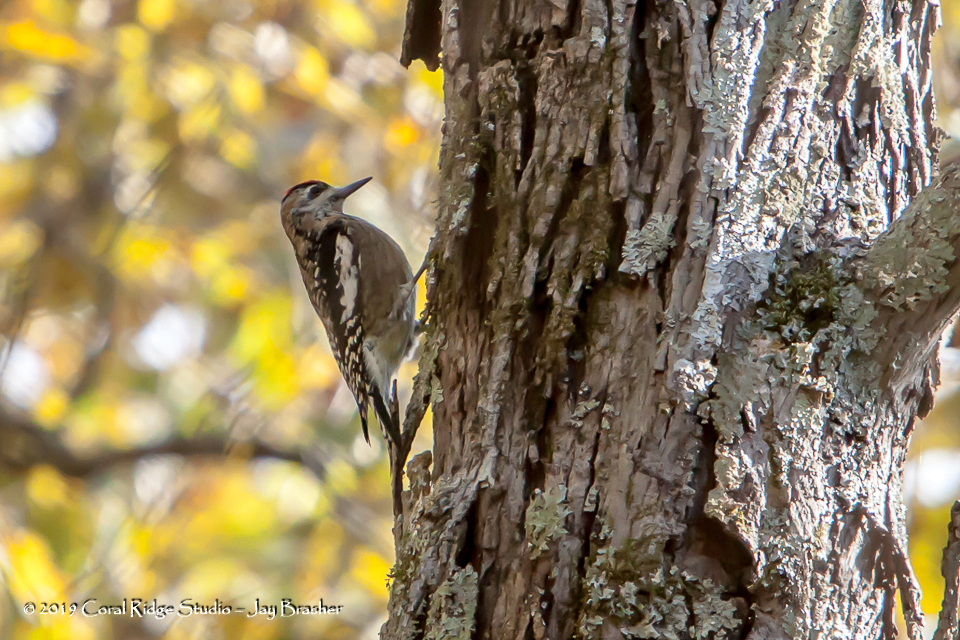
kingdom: Animalia
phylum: Chordata
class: Aves
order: Piciformes
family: Picidae
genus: Sphyrapicus
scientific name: Sphyrapicus varius
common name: Yellow-bellied sapsucker
